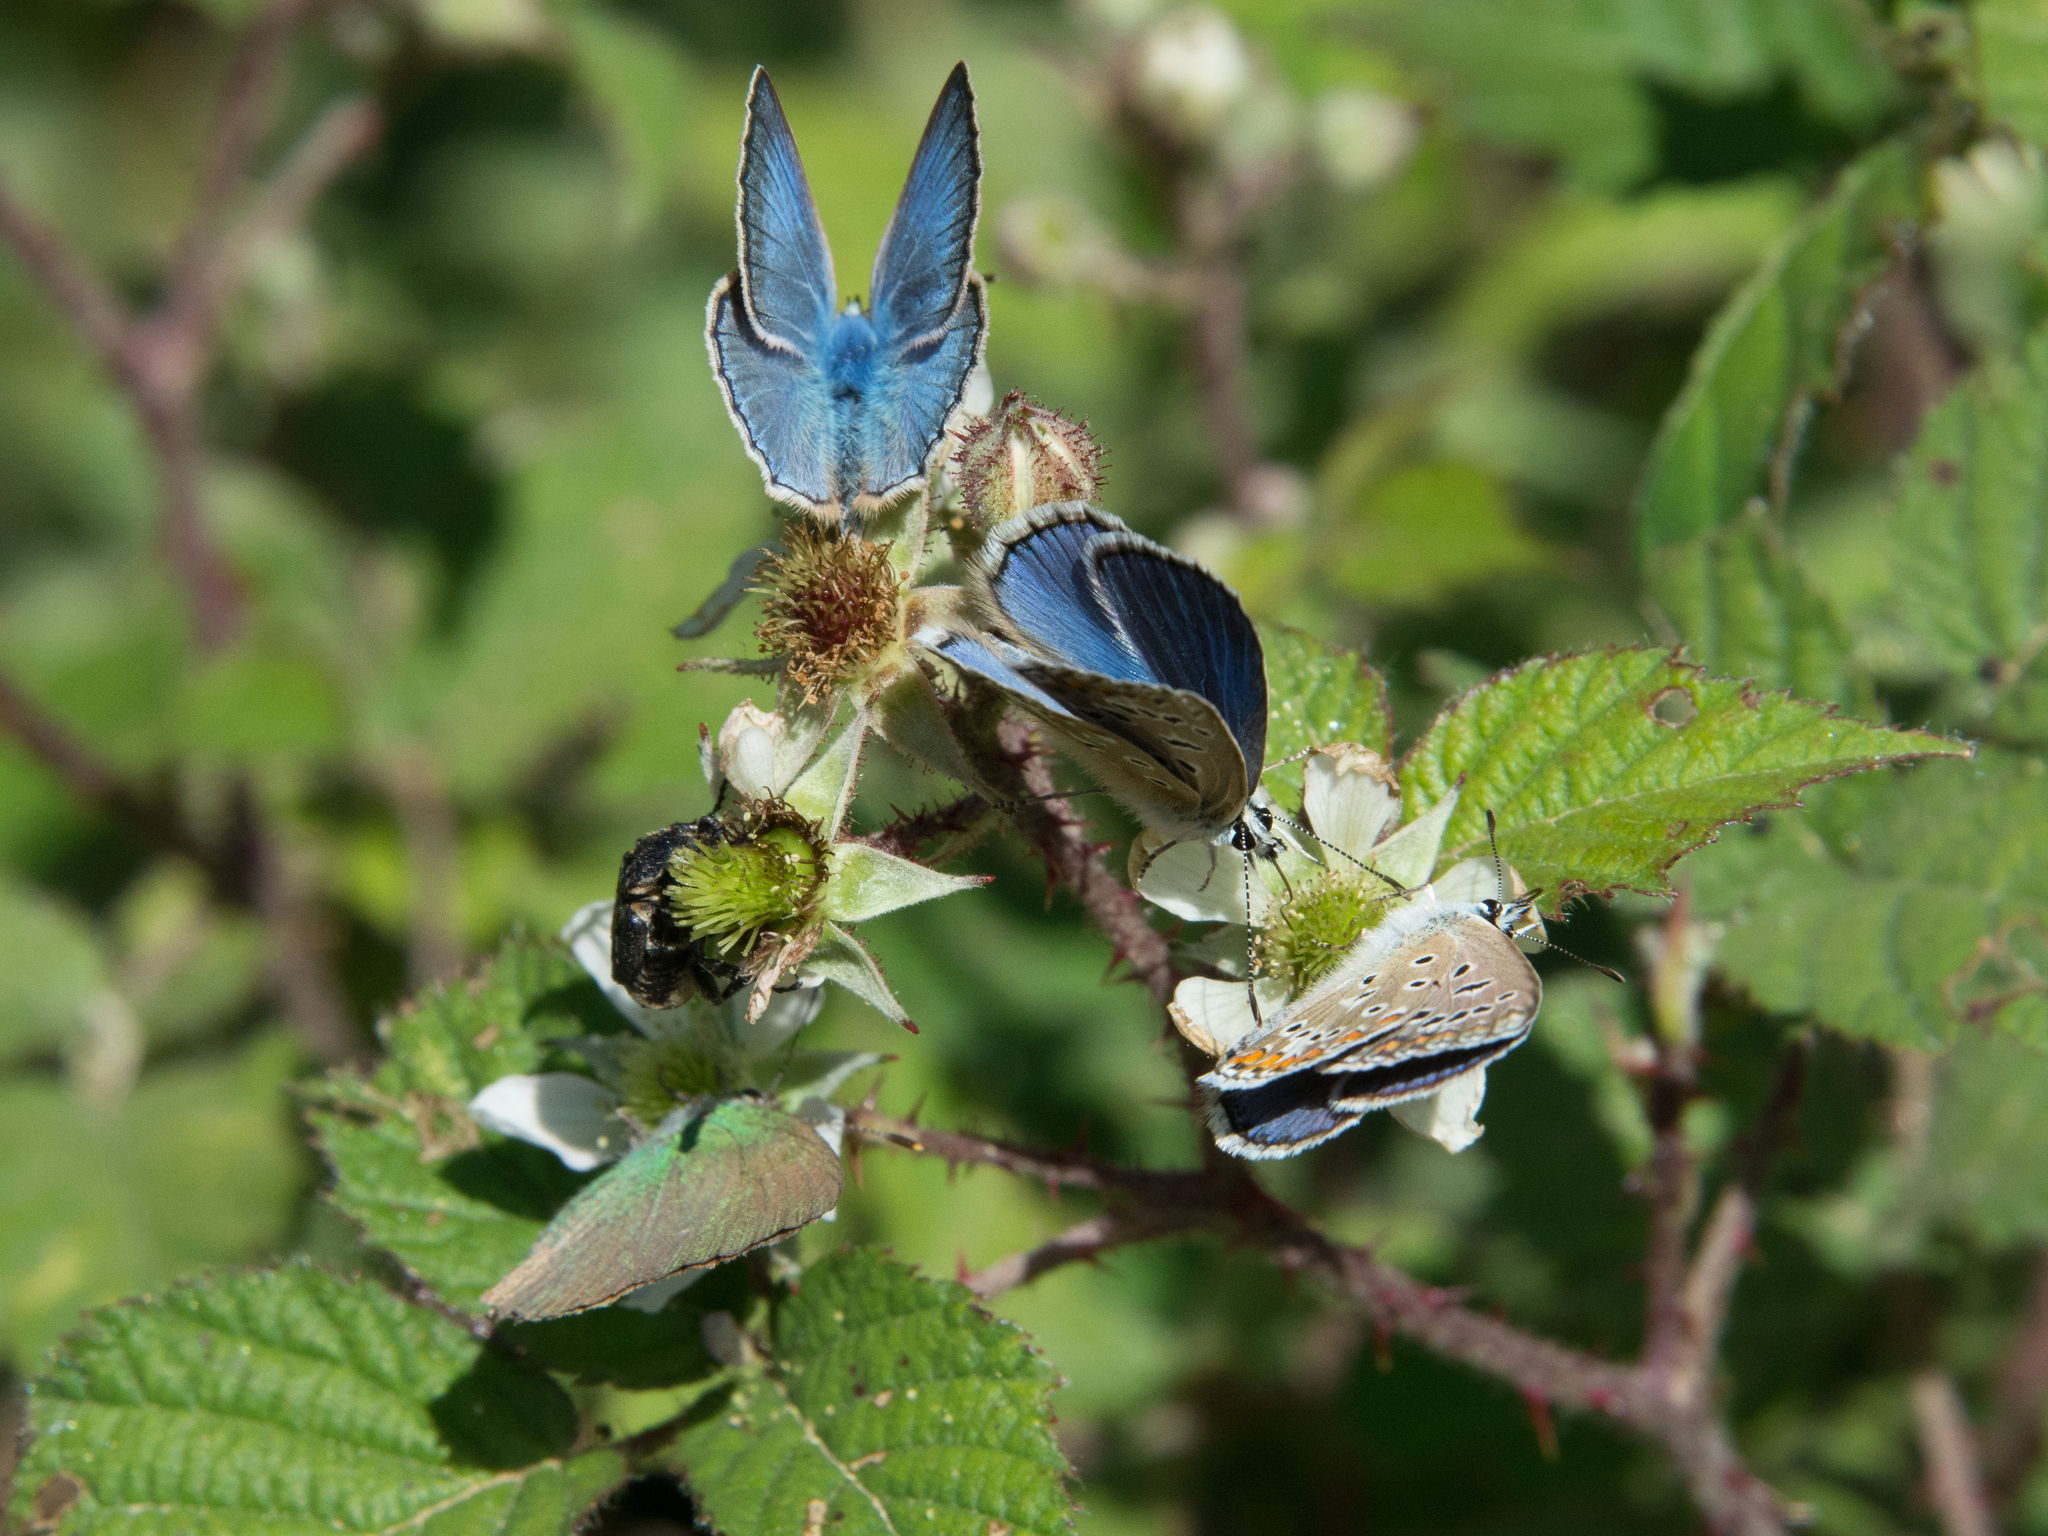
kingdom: Animalia
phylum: Arthropoda
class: Insecta
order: Lepidoptera
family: Lycaenidae
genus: Polyommatus
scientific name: Polyommatus celina
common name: Austaut's blue
